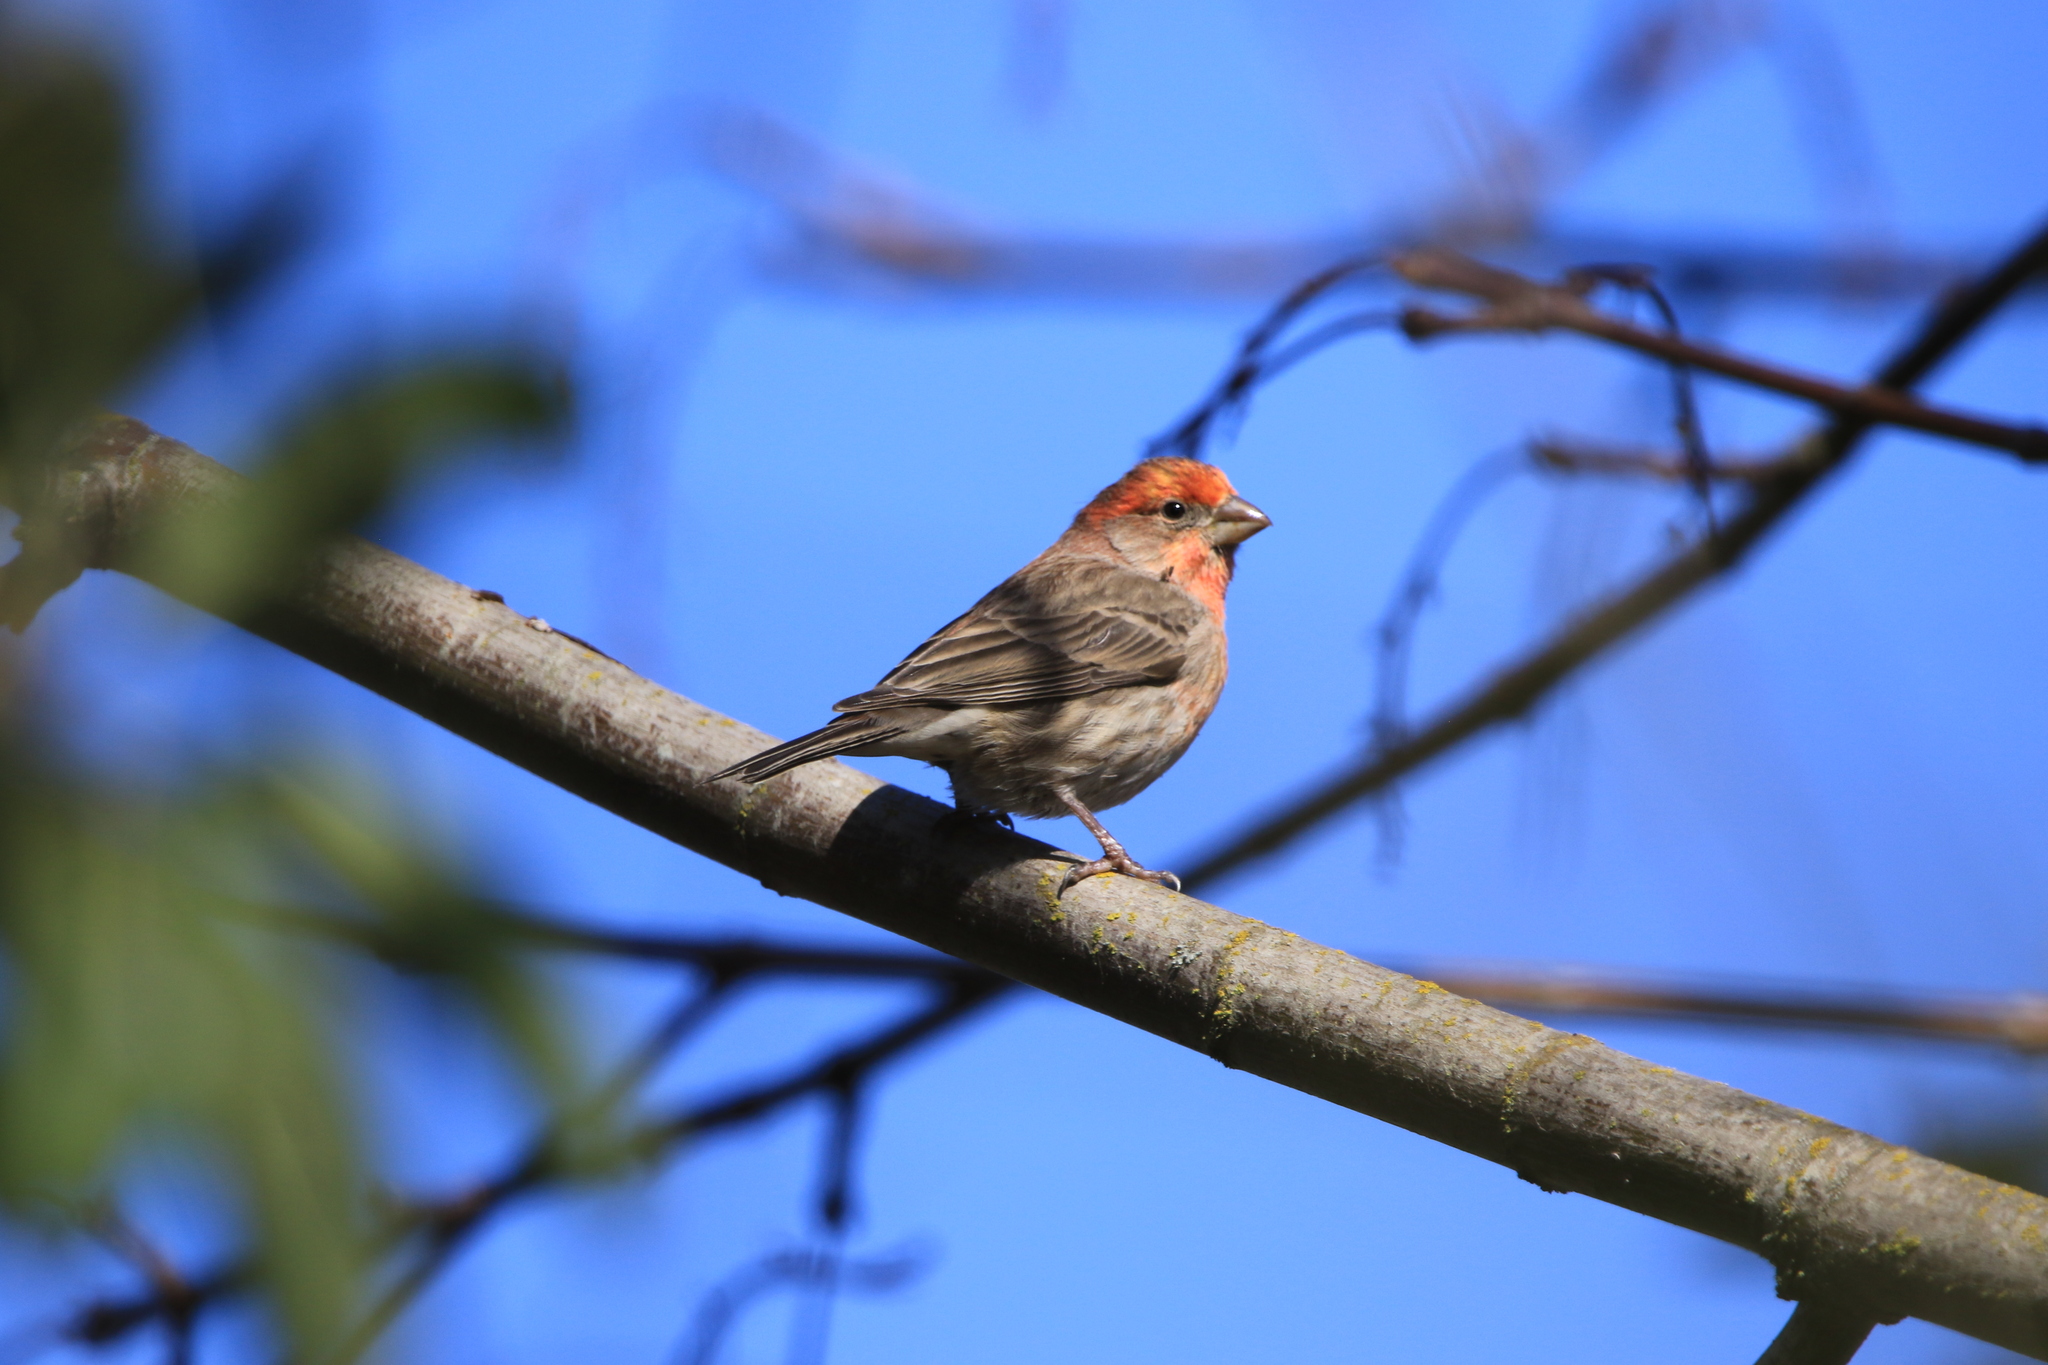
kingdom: Animalia
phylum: Chordata
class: Aves
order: Passeriformes
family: Fringillidae
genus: Haemorhous
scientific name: Haemorhous mexicanus
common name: House finch
